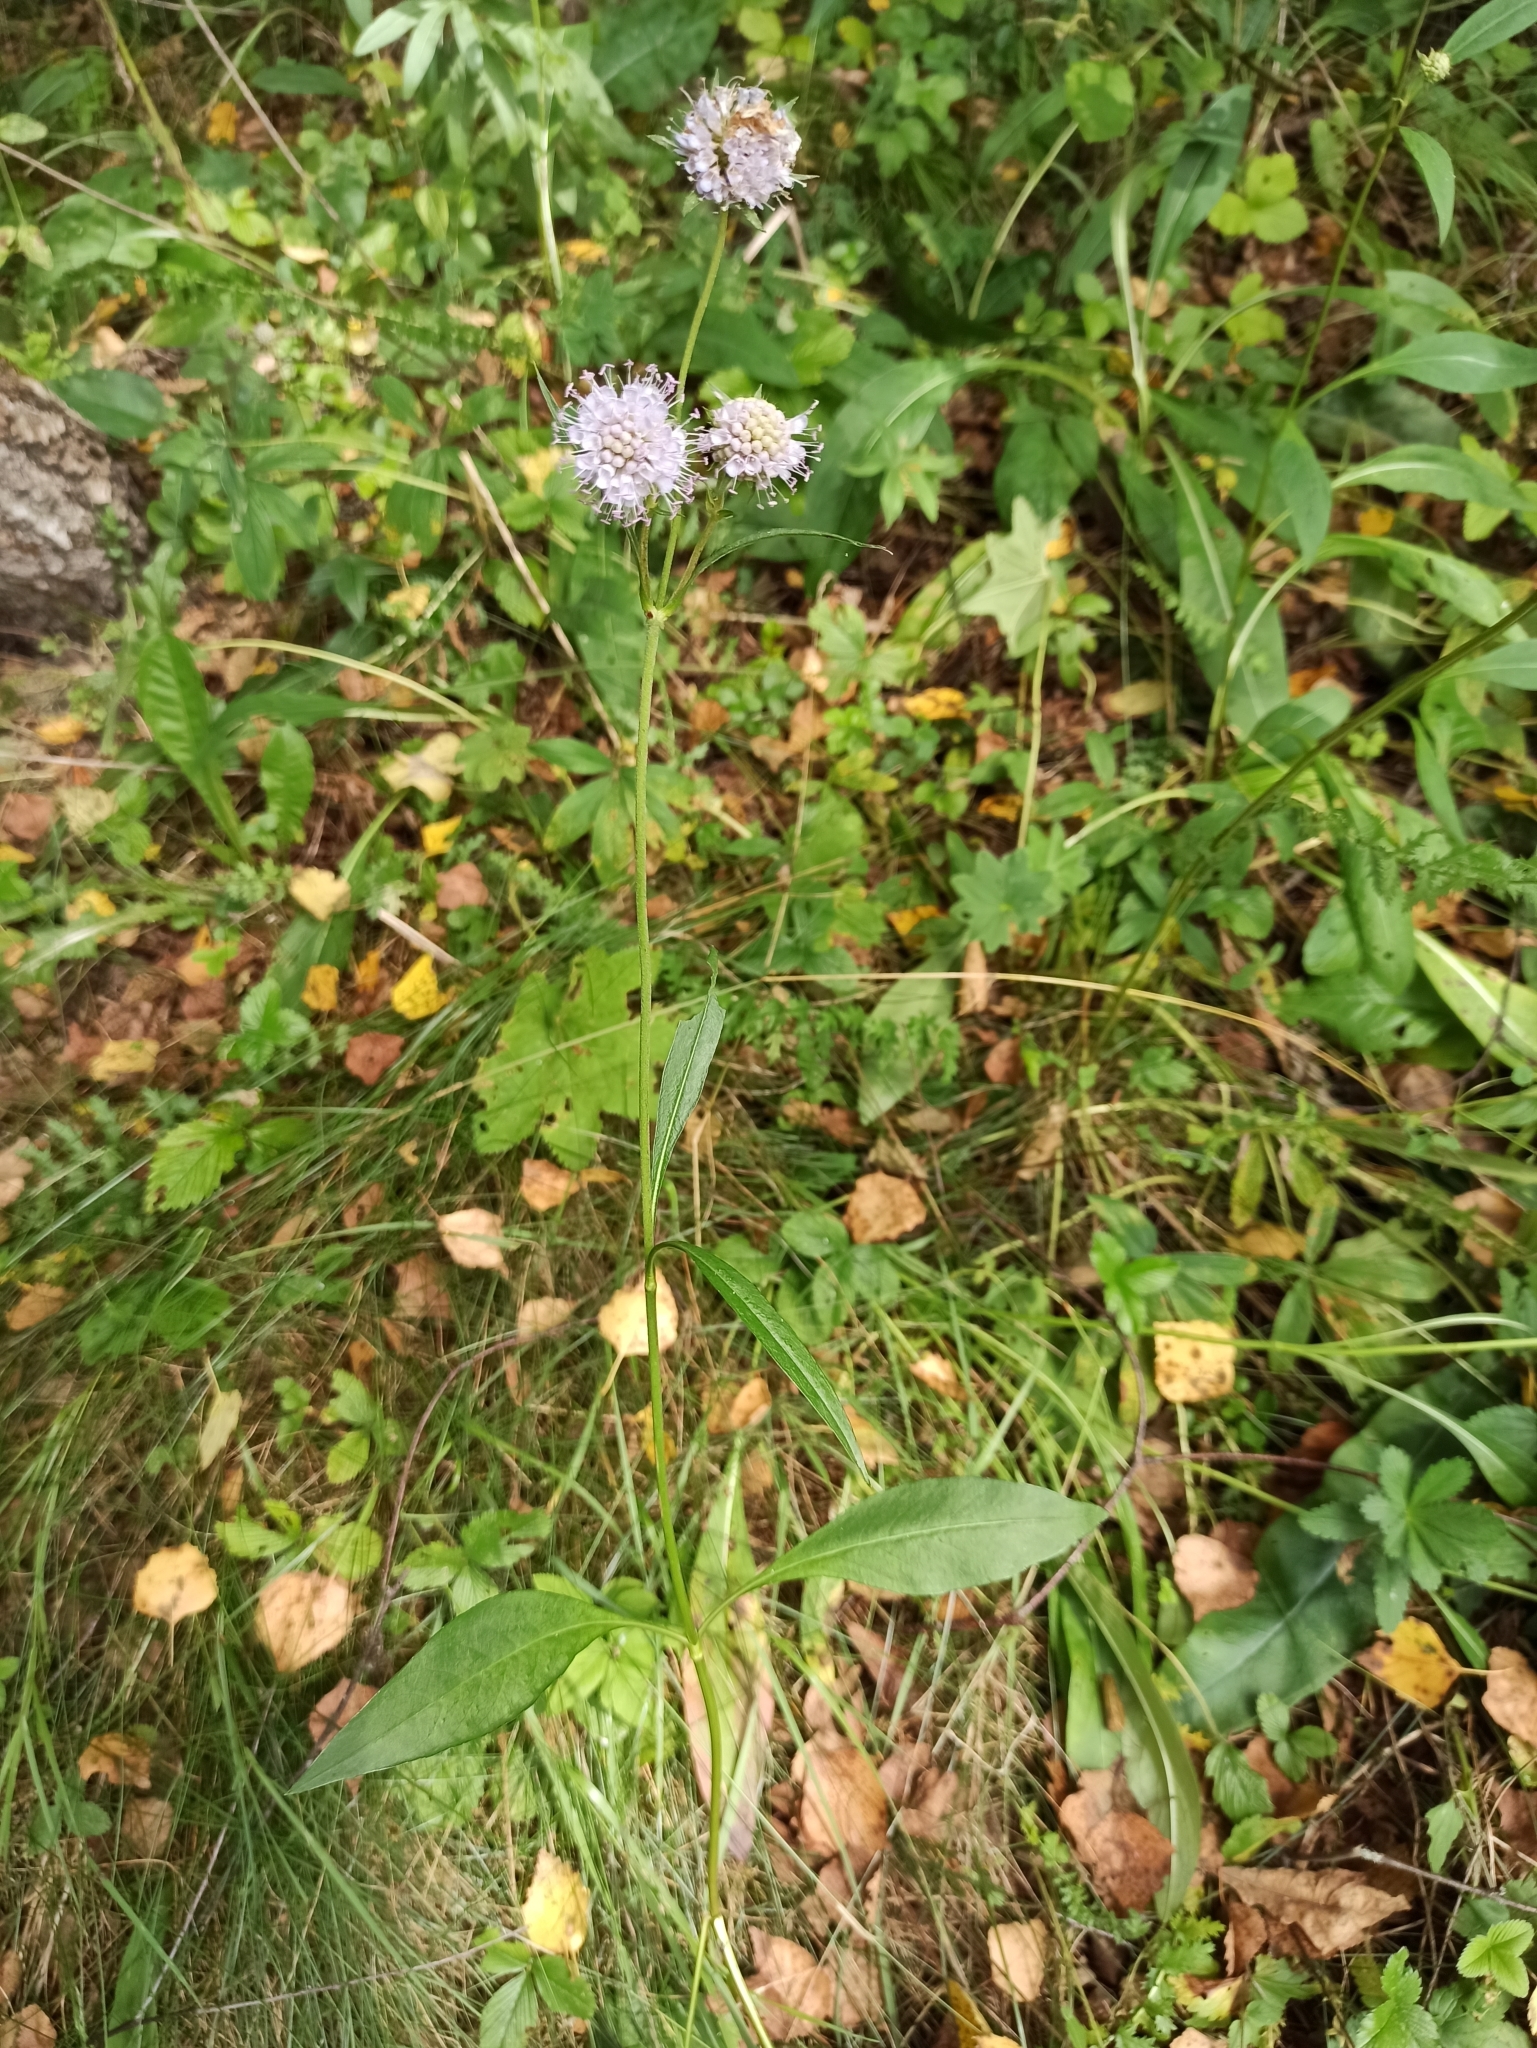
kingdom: Plantae
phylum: Tracheophyta
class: Magnoliopsida
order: Dipsacales
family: Caprifoliaceae
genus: Succisa
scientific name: Succisa pratensis
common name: Devil's-bit
